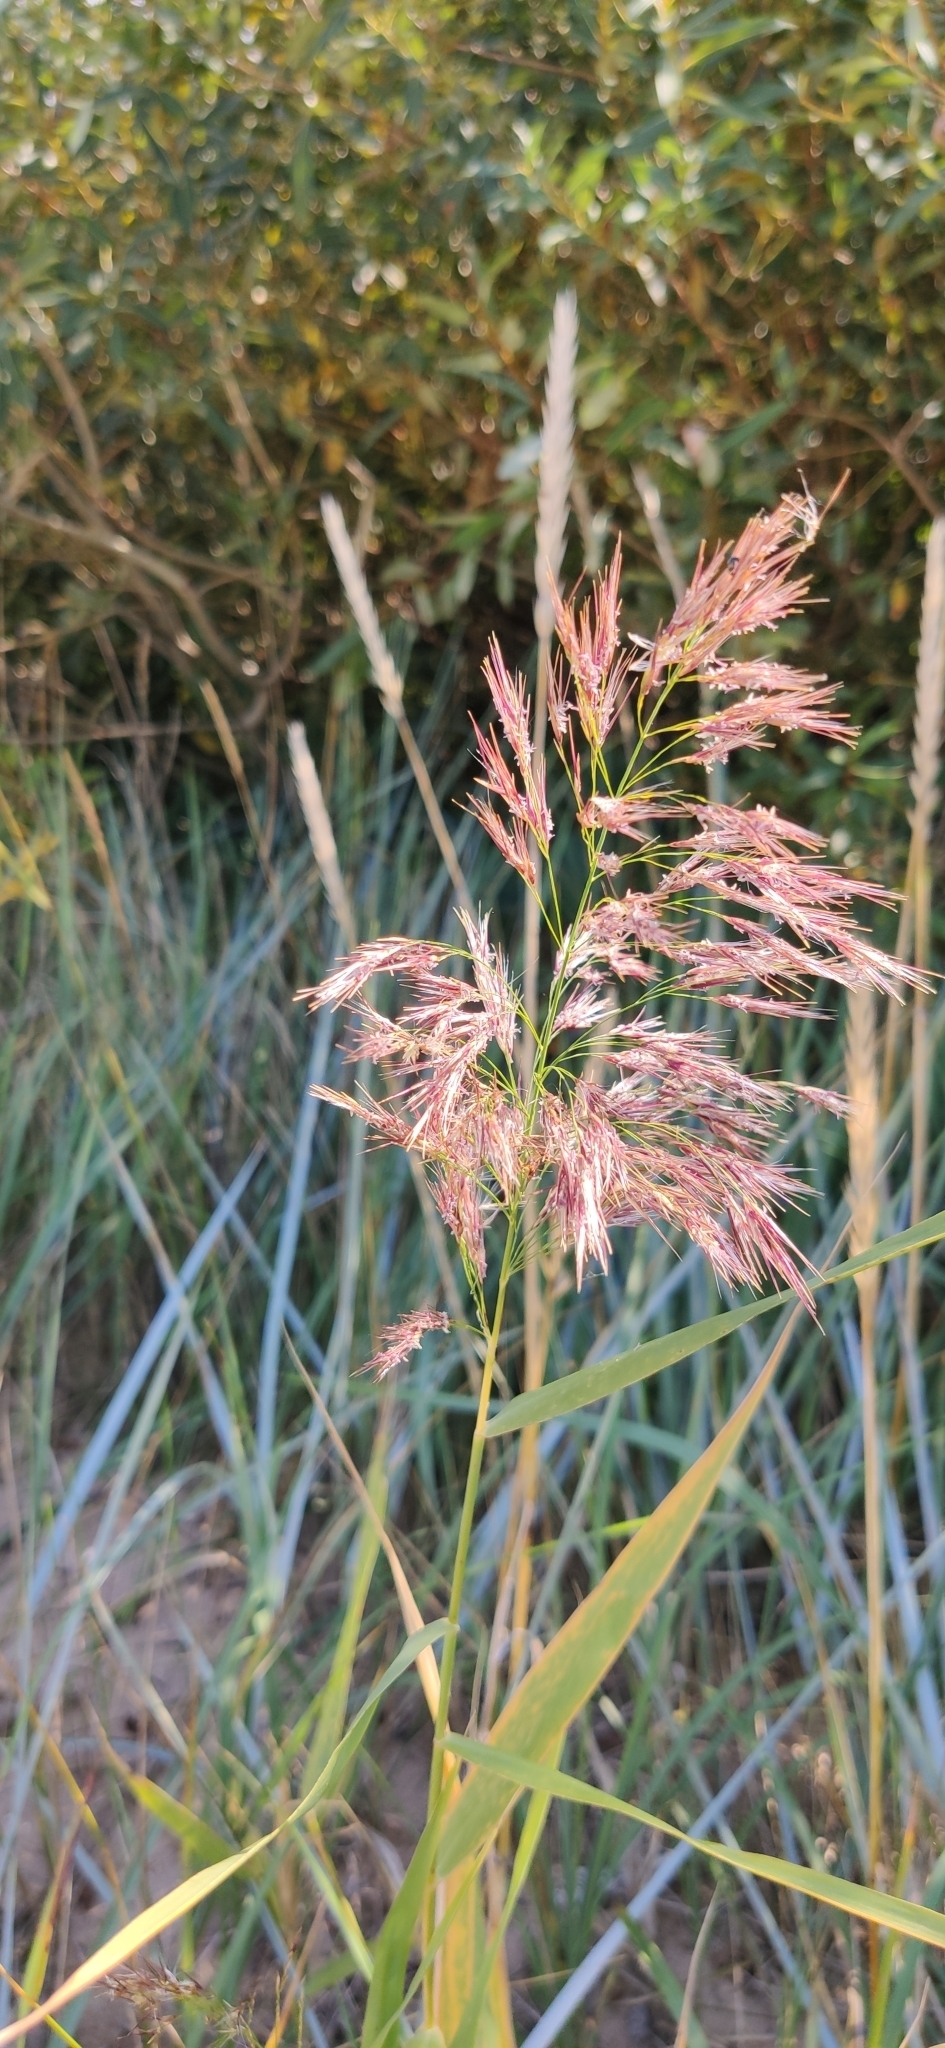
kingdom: Plantae
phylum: Tracheophyta
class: Liliopsida
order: Poales
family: Poaceae
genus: Phragmites
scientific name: Phragmites australis
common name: Common reed
